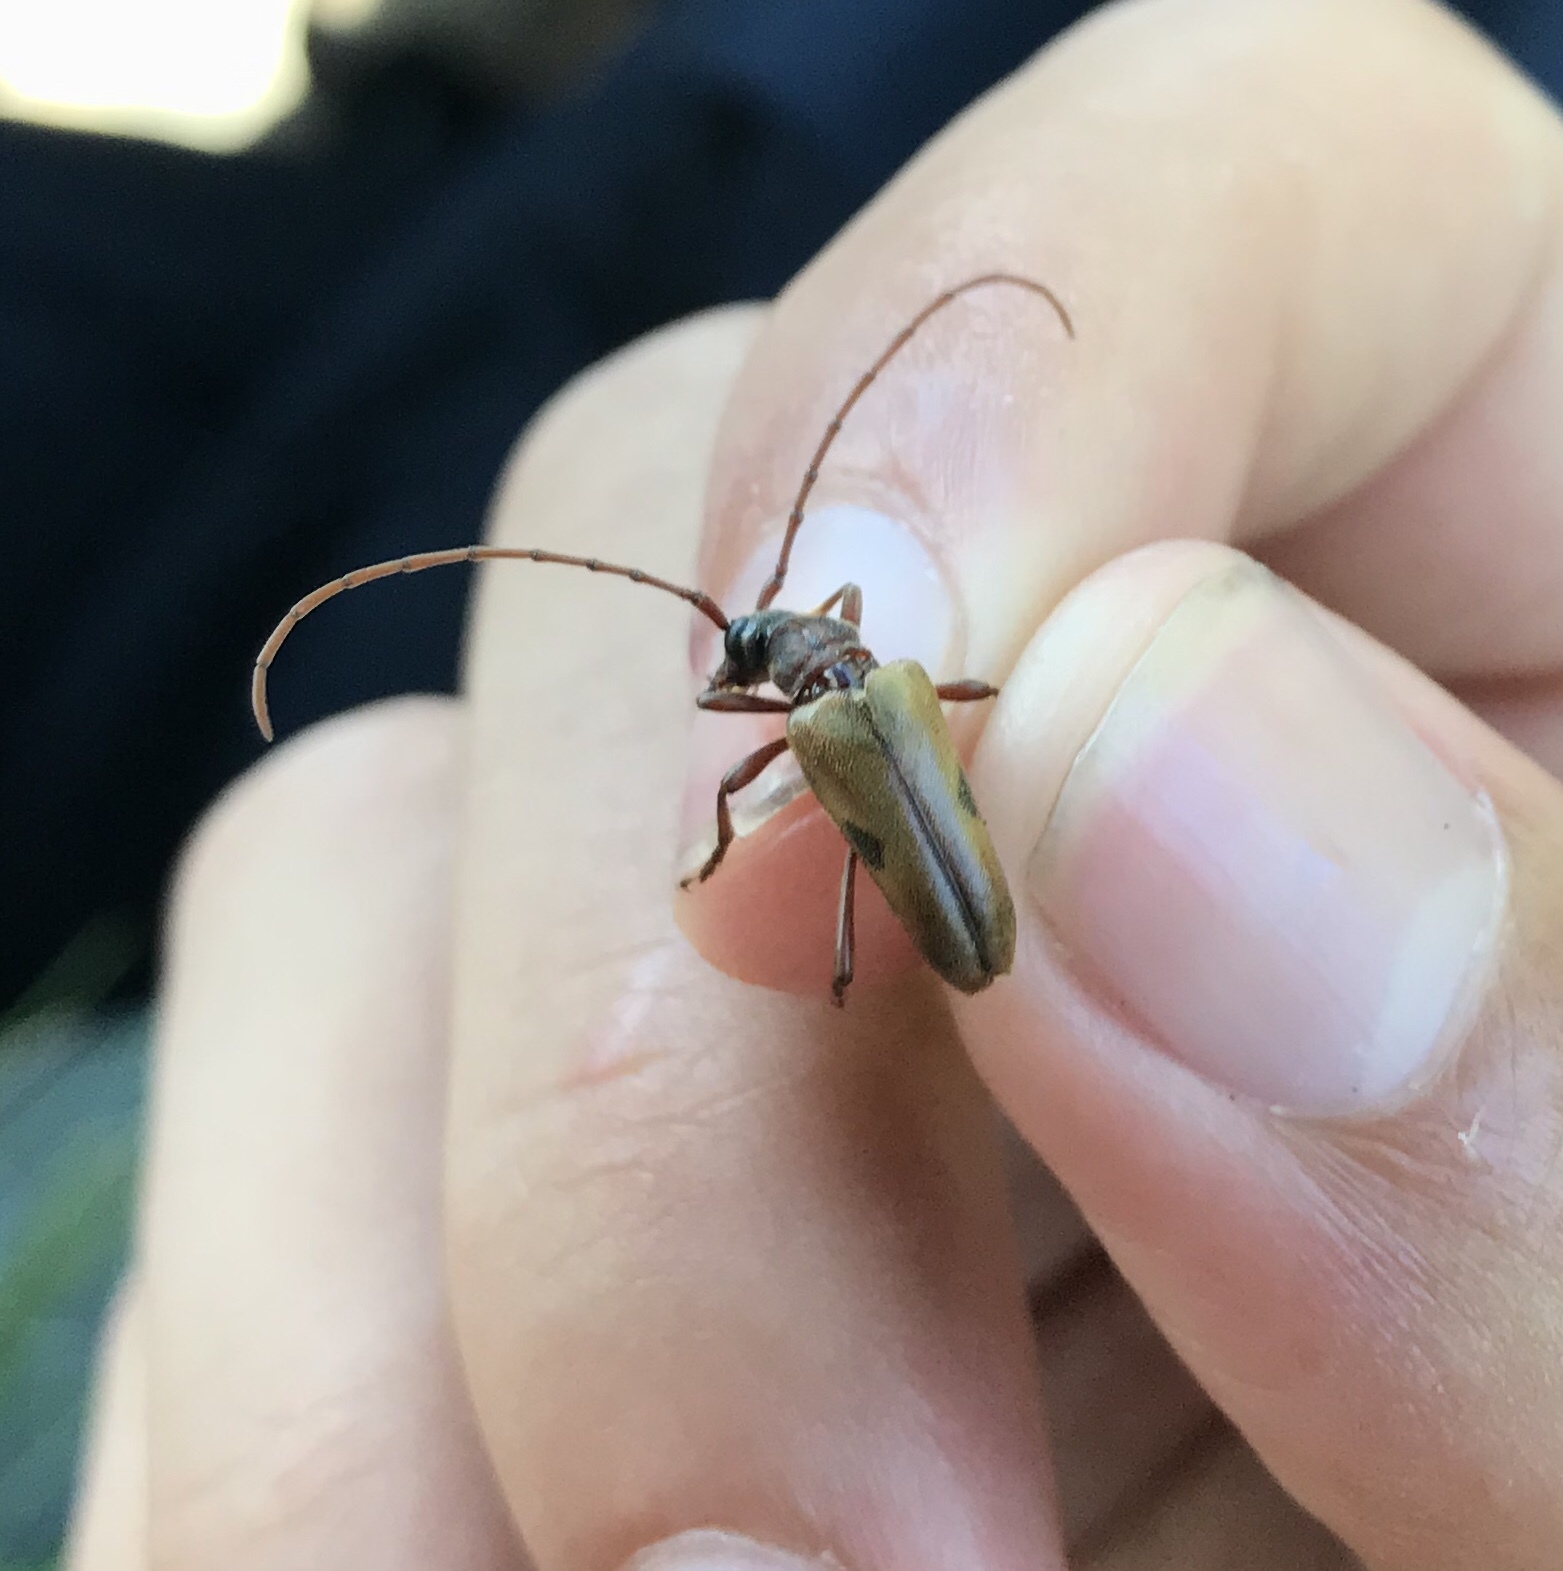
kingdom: Animalia
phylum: Arthropoda
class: Insecta
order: Coleoptera
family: Cerambycidae
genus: Lepturopsis
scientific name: Lepturopsis biforis
